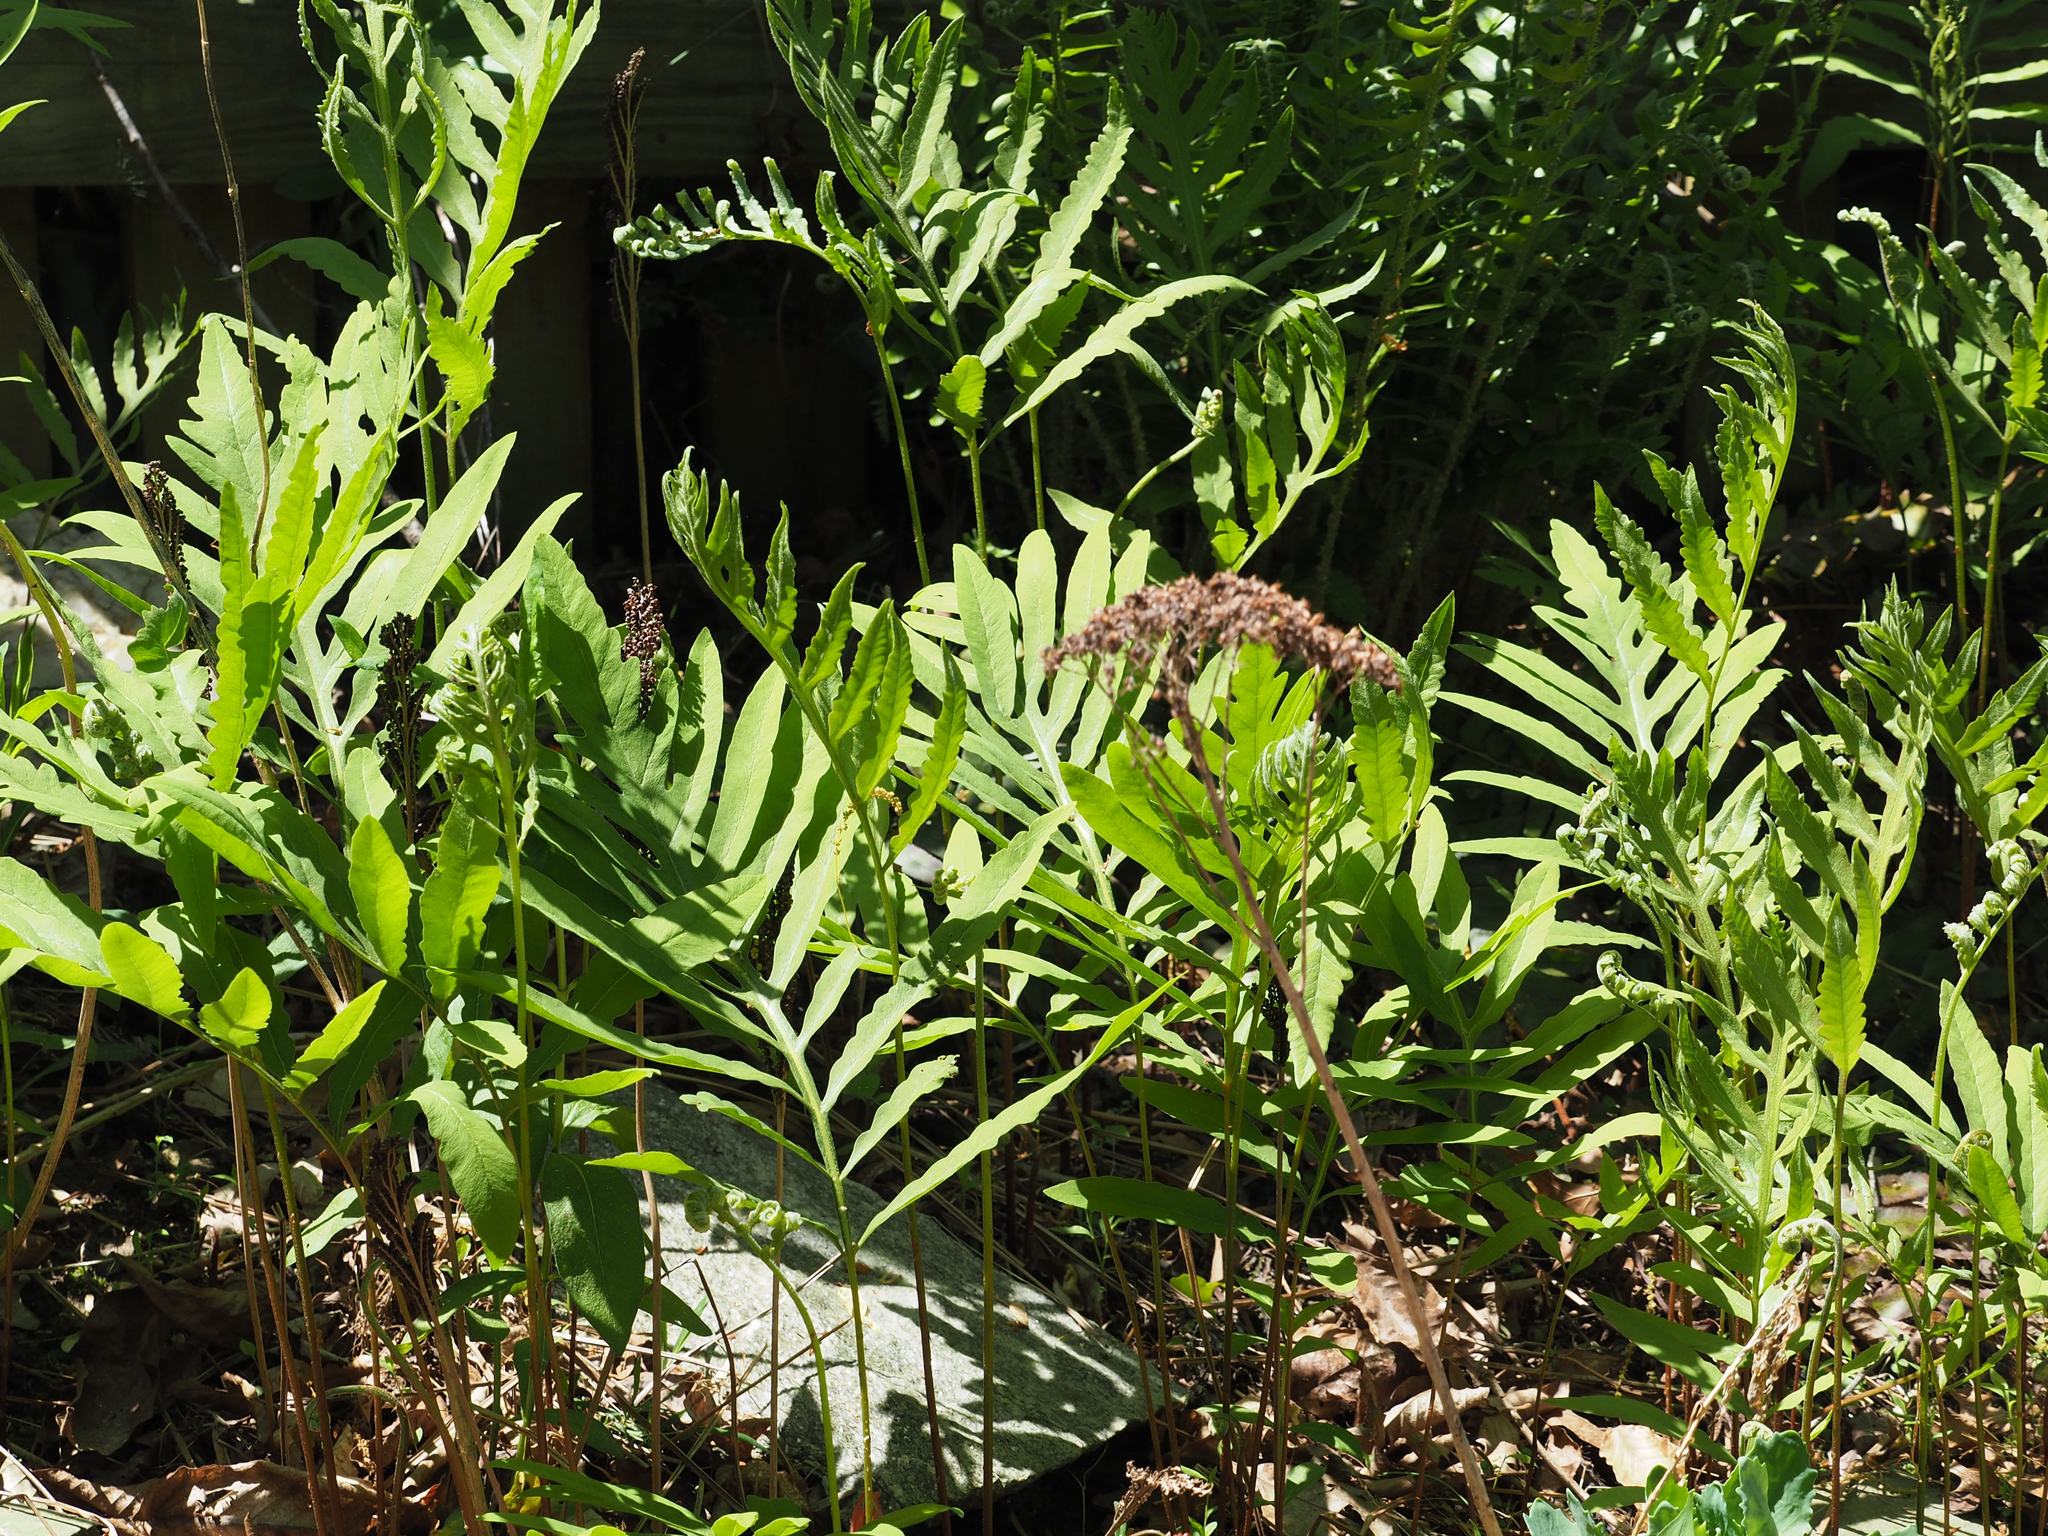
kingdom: Plantae
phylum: Tracheophyta
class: Polypodiopsida
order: Polypodiales
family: Onocleaceae
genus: Onoclea
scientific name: Onoclea sensibilis
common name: Sensitive fern
